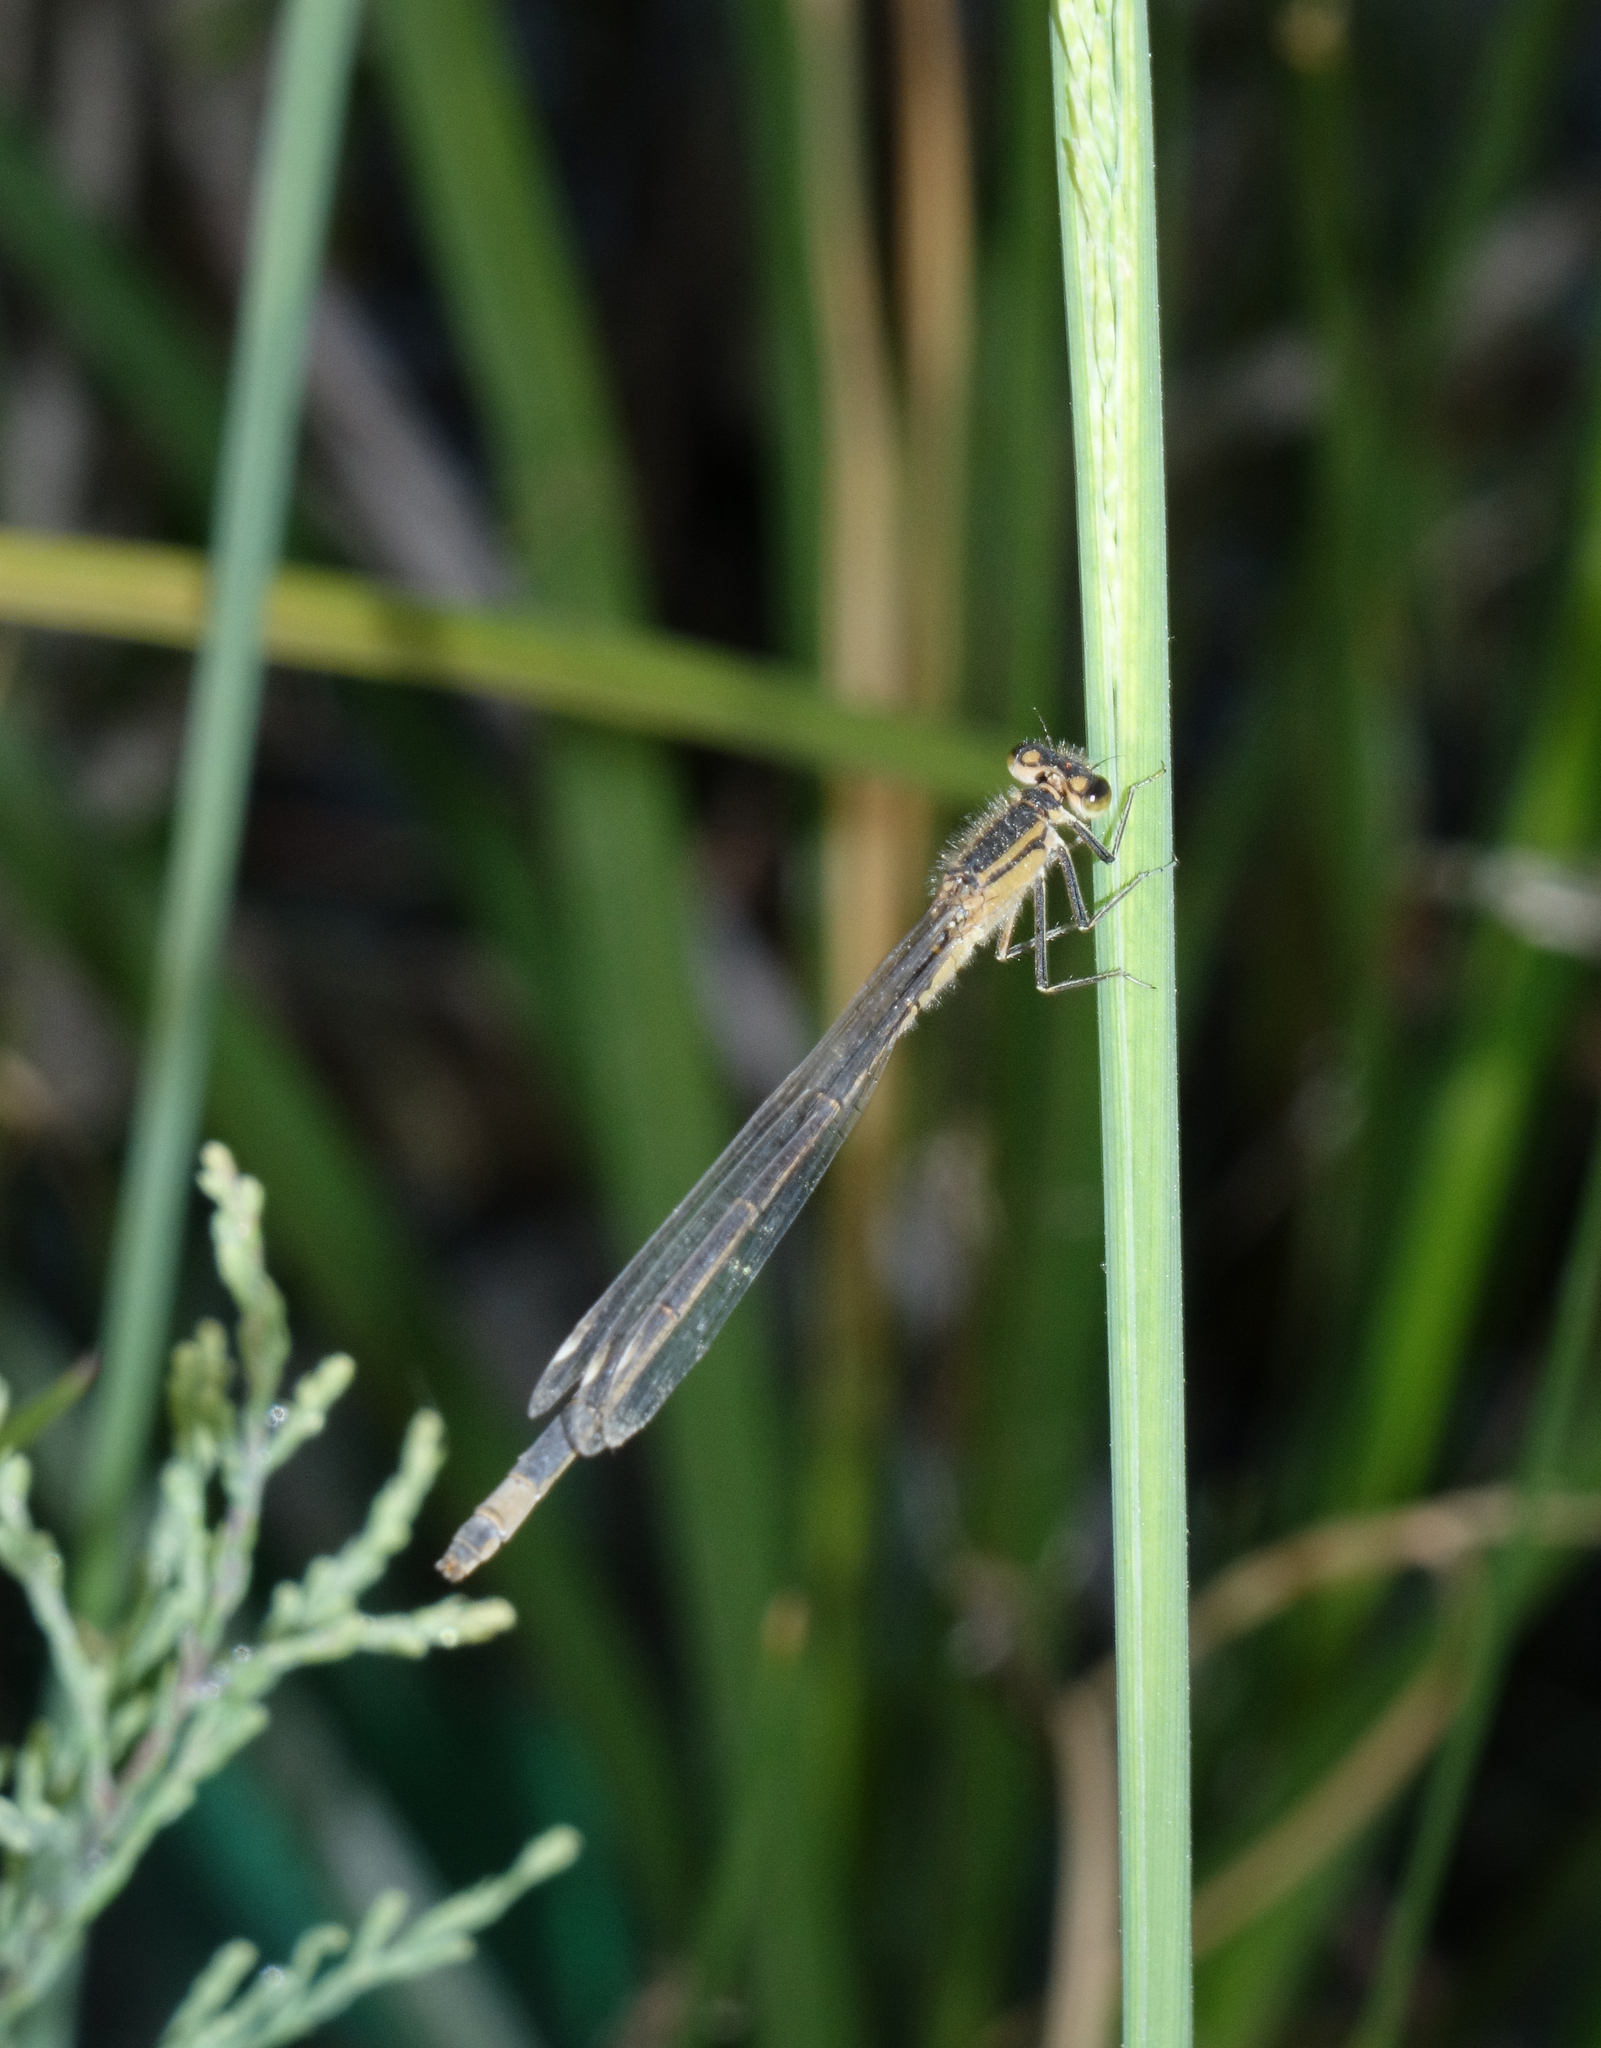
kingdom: Animalia
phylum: Arthropoda
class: Insecta
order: Odonata
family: Coenagrionidae
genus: Ischnura
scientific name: Ischnura elegans
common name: Blue-tailed damselfly
